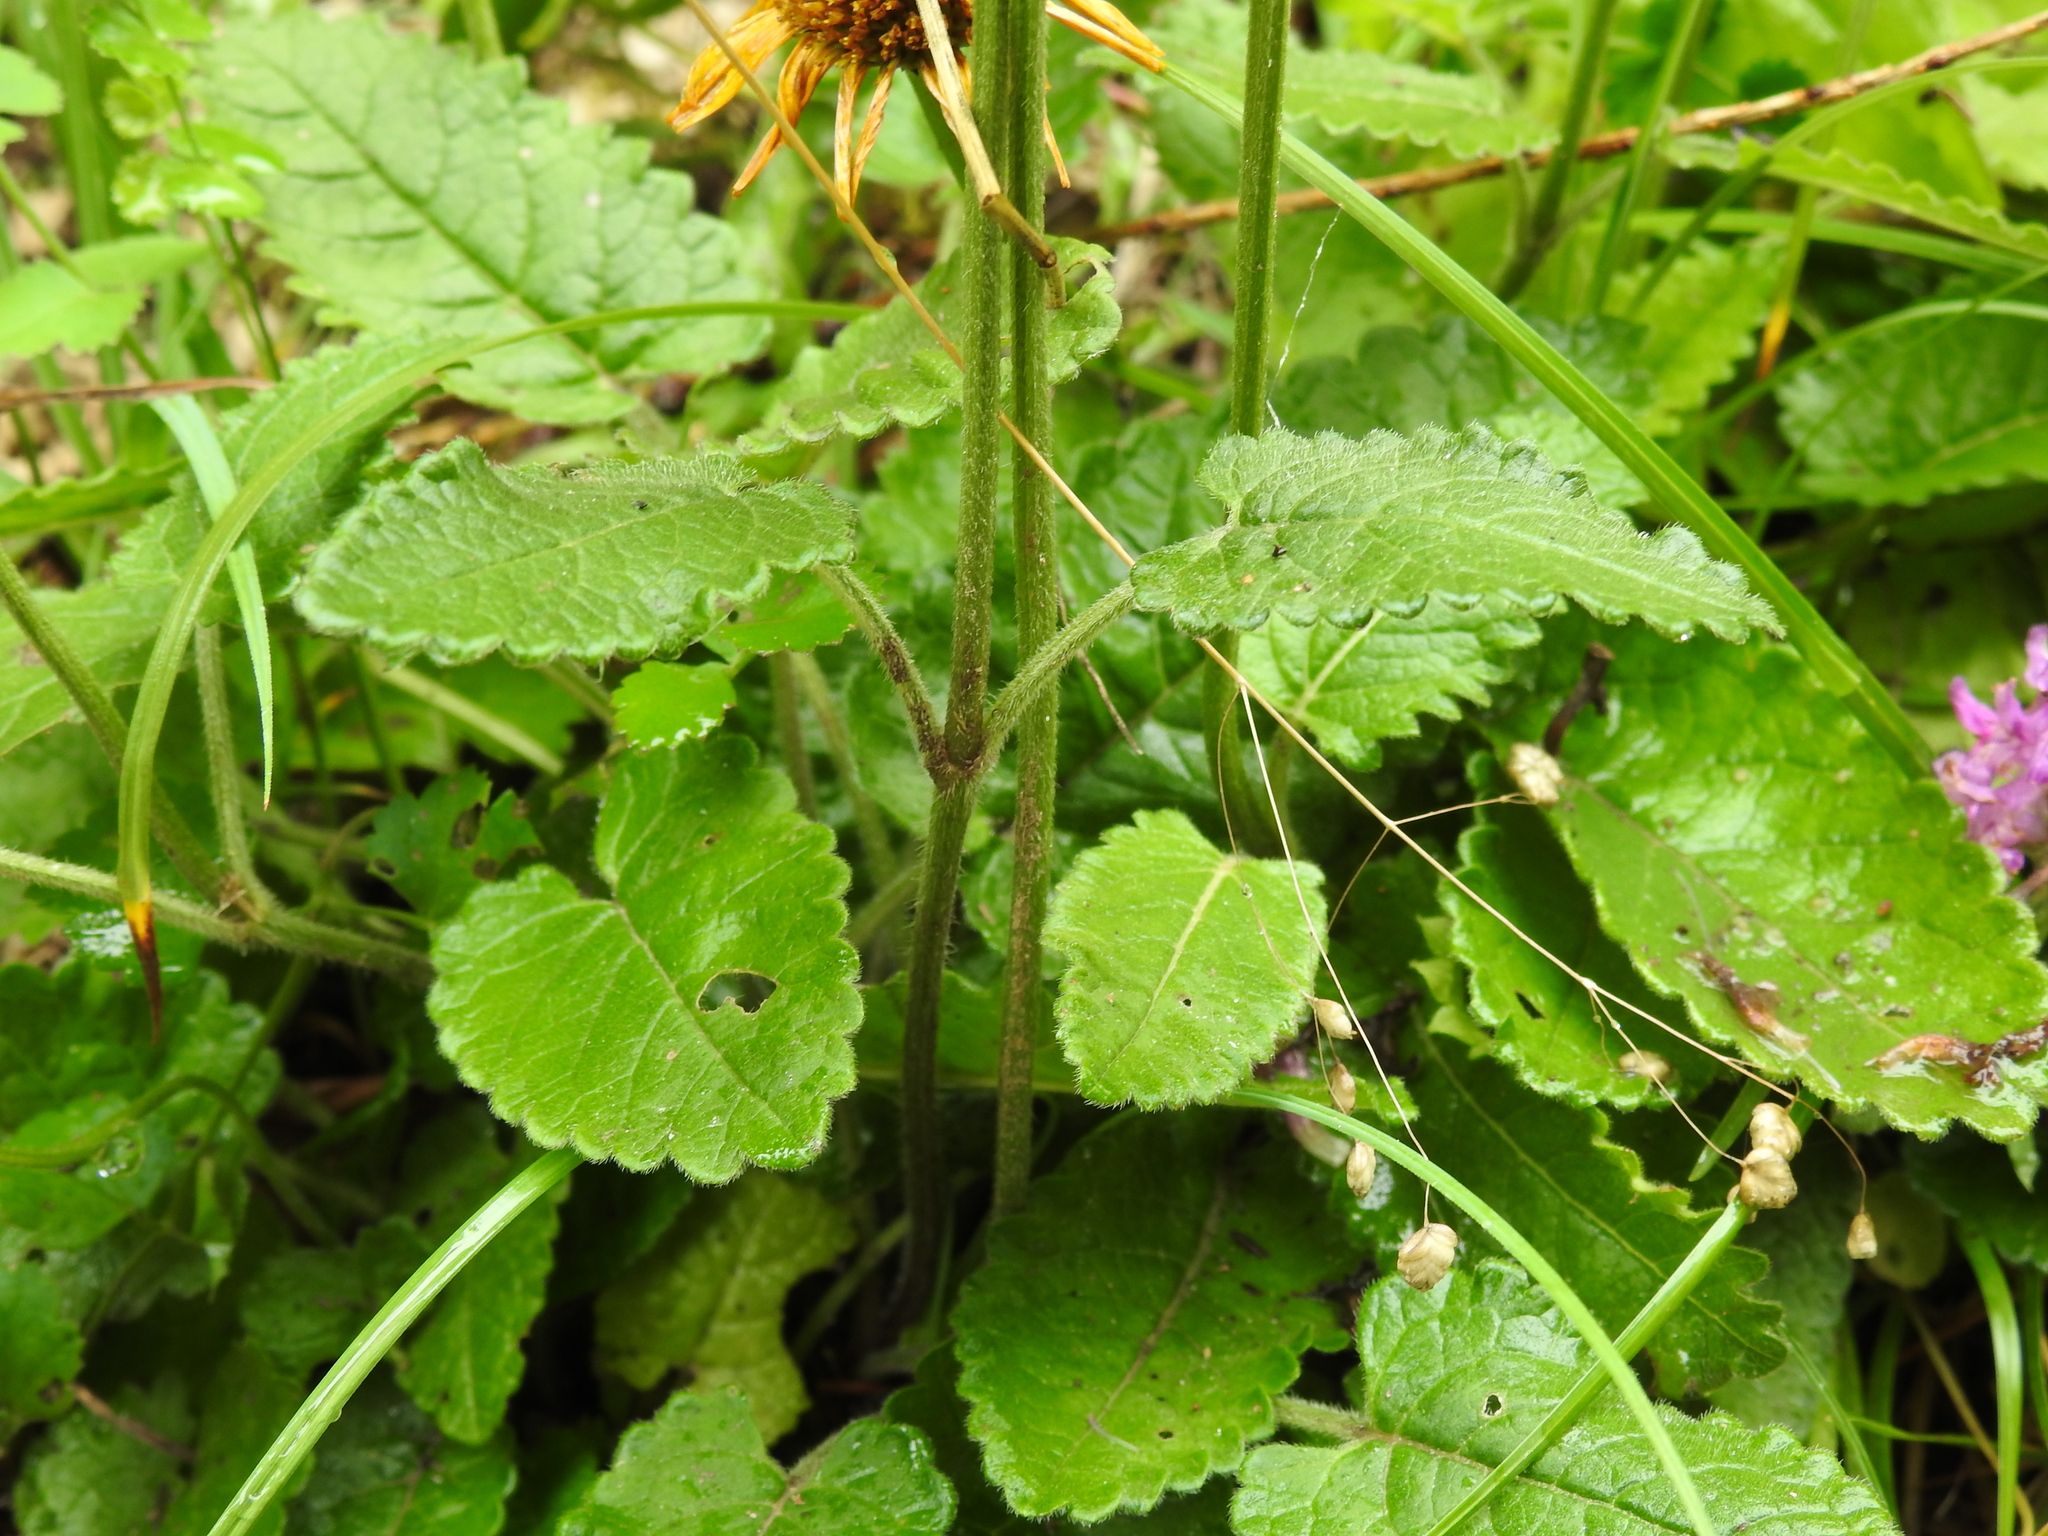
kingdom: Plantae
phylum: Tracheophyta
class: Magnoliopsida
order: Lamiales
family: Lamiaceae
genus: Betonica
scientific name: Betonica officinalis
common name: Bishop's-wort
